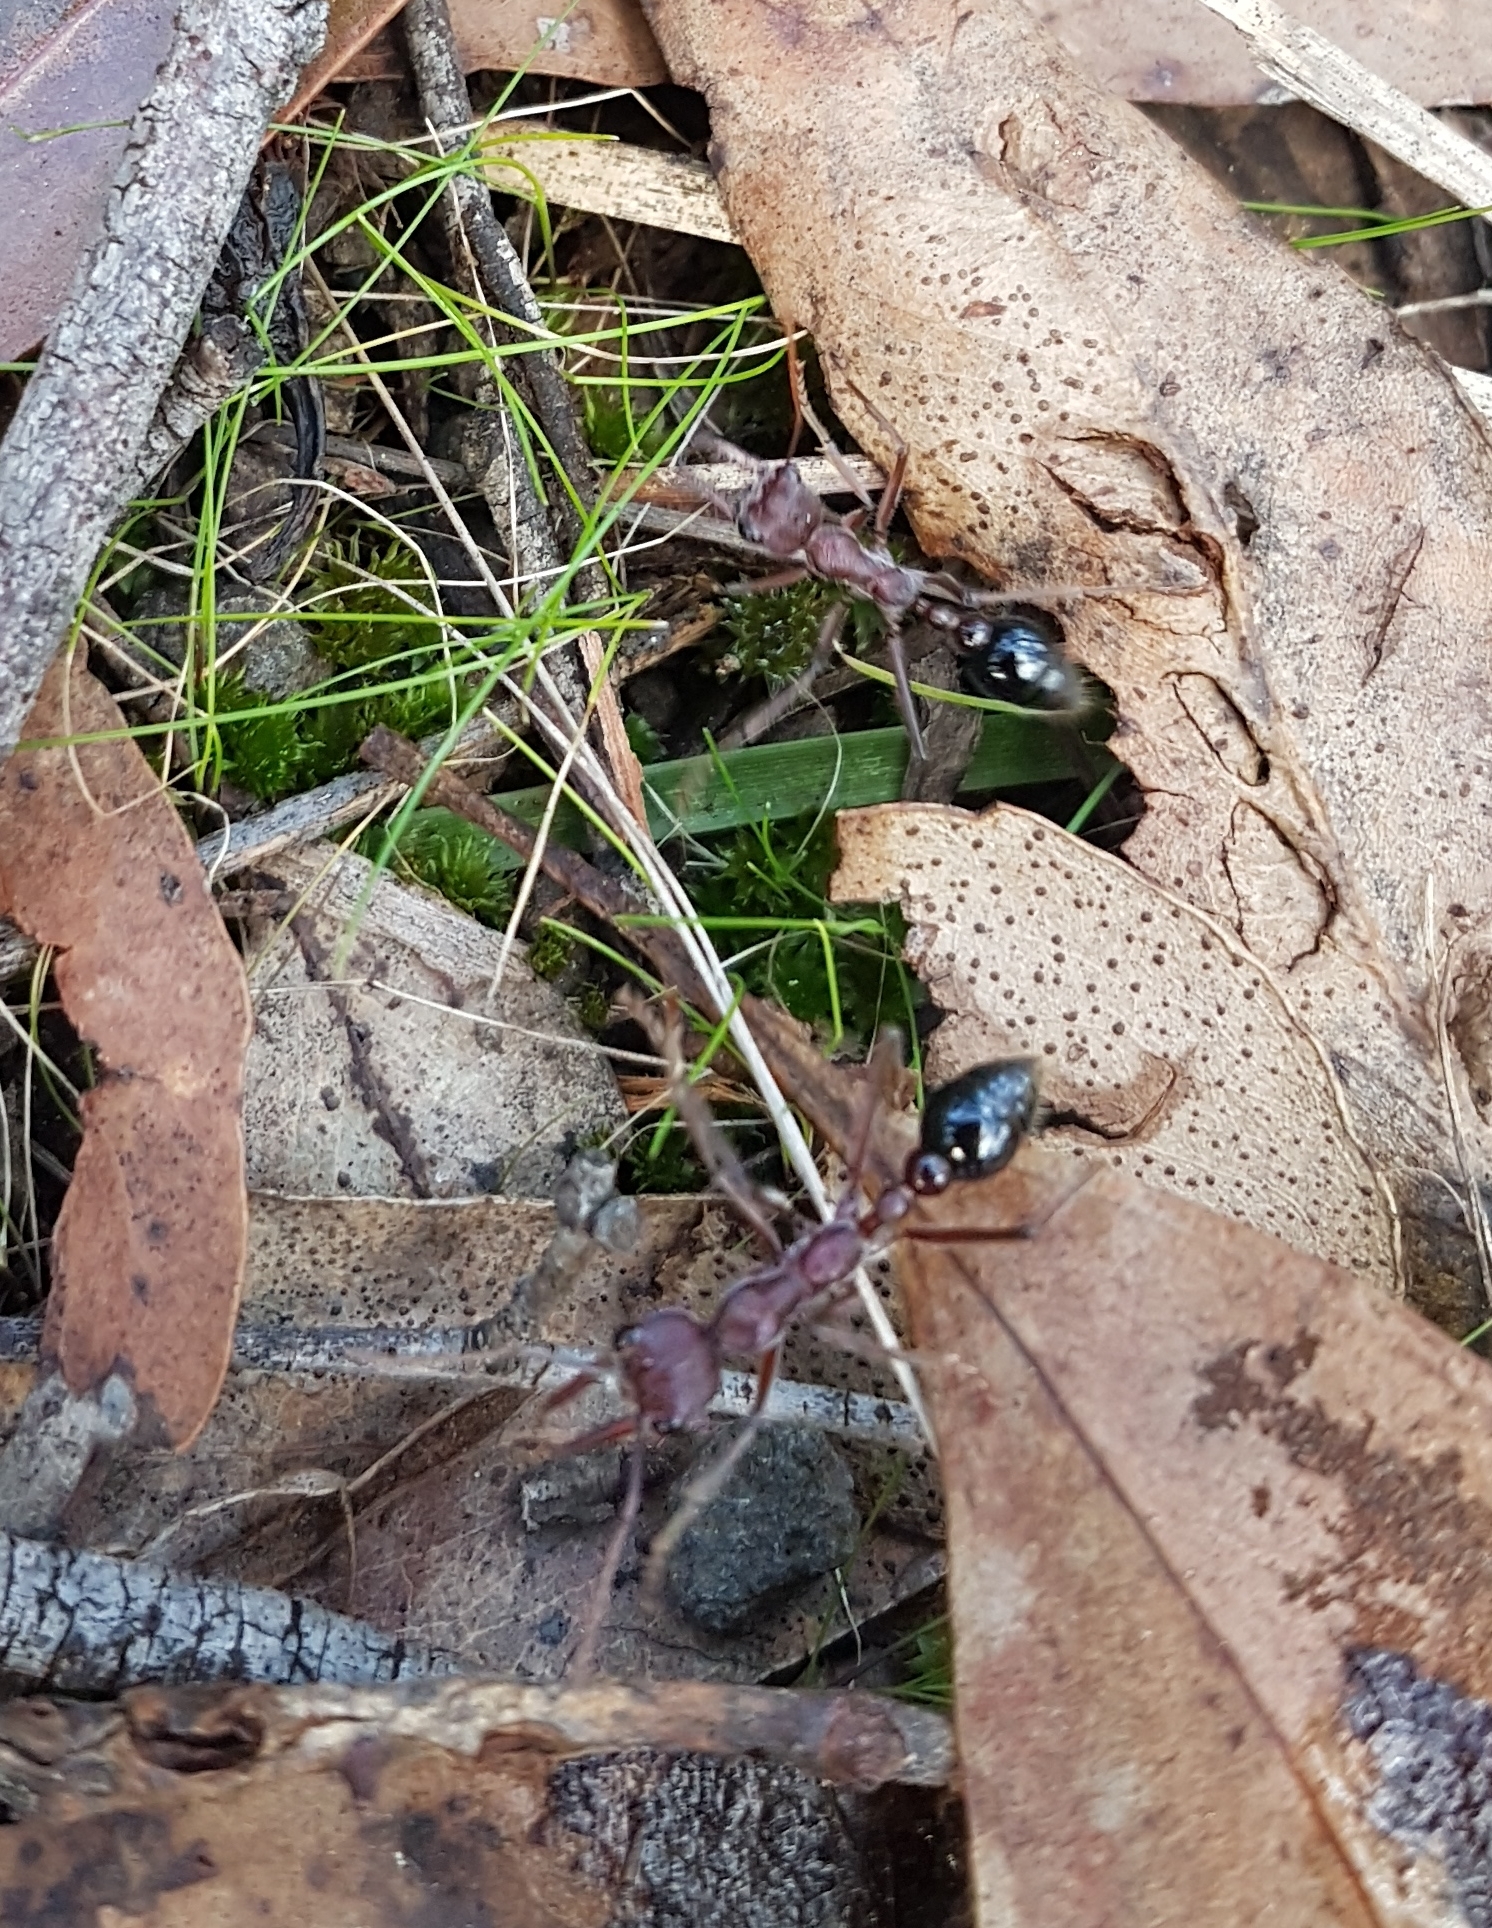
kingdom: Animalia
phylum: Arthropoda
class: Insecta
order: Hymenoptera
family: Formicidae
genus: Myrmecia
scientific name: Myrmecia simillima
